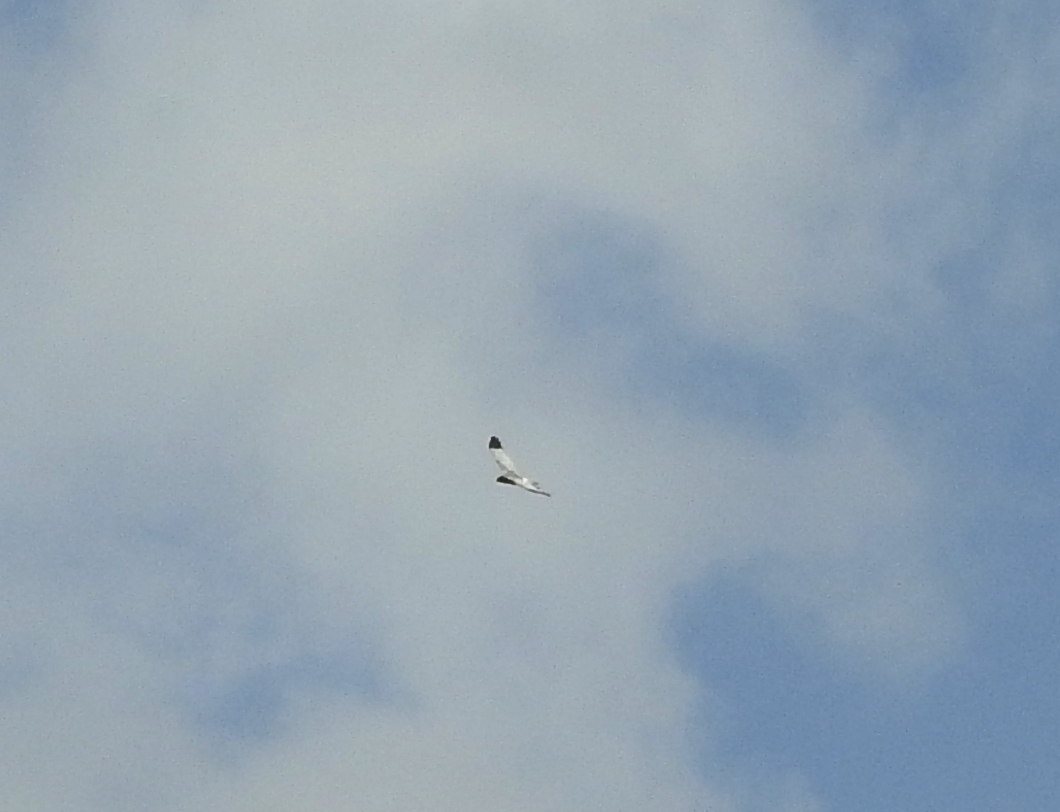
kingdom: Animalia
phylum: Chordata
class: Aves
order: Accipitriformes
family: Accipitridae
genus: Circus
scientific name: Circus spilonotus
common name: Eastern marsh-harrier
